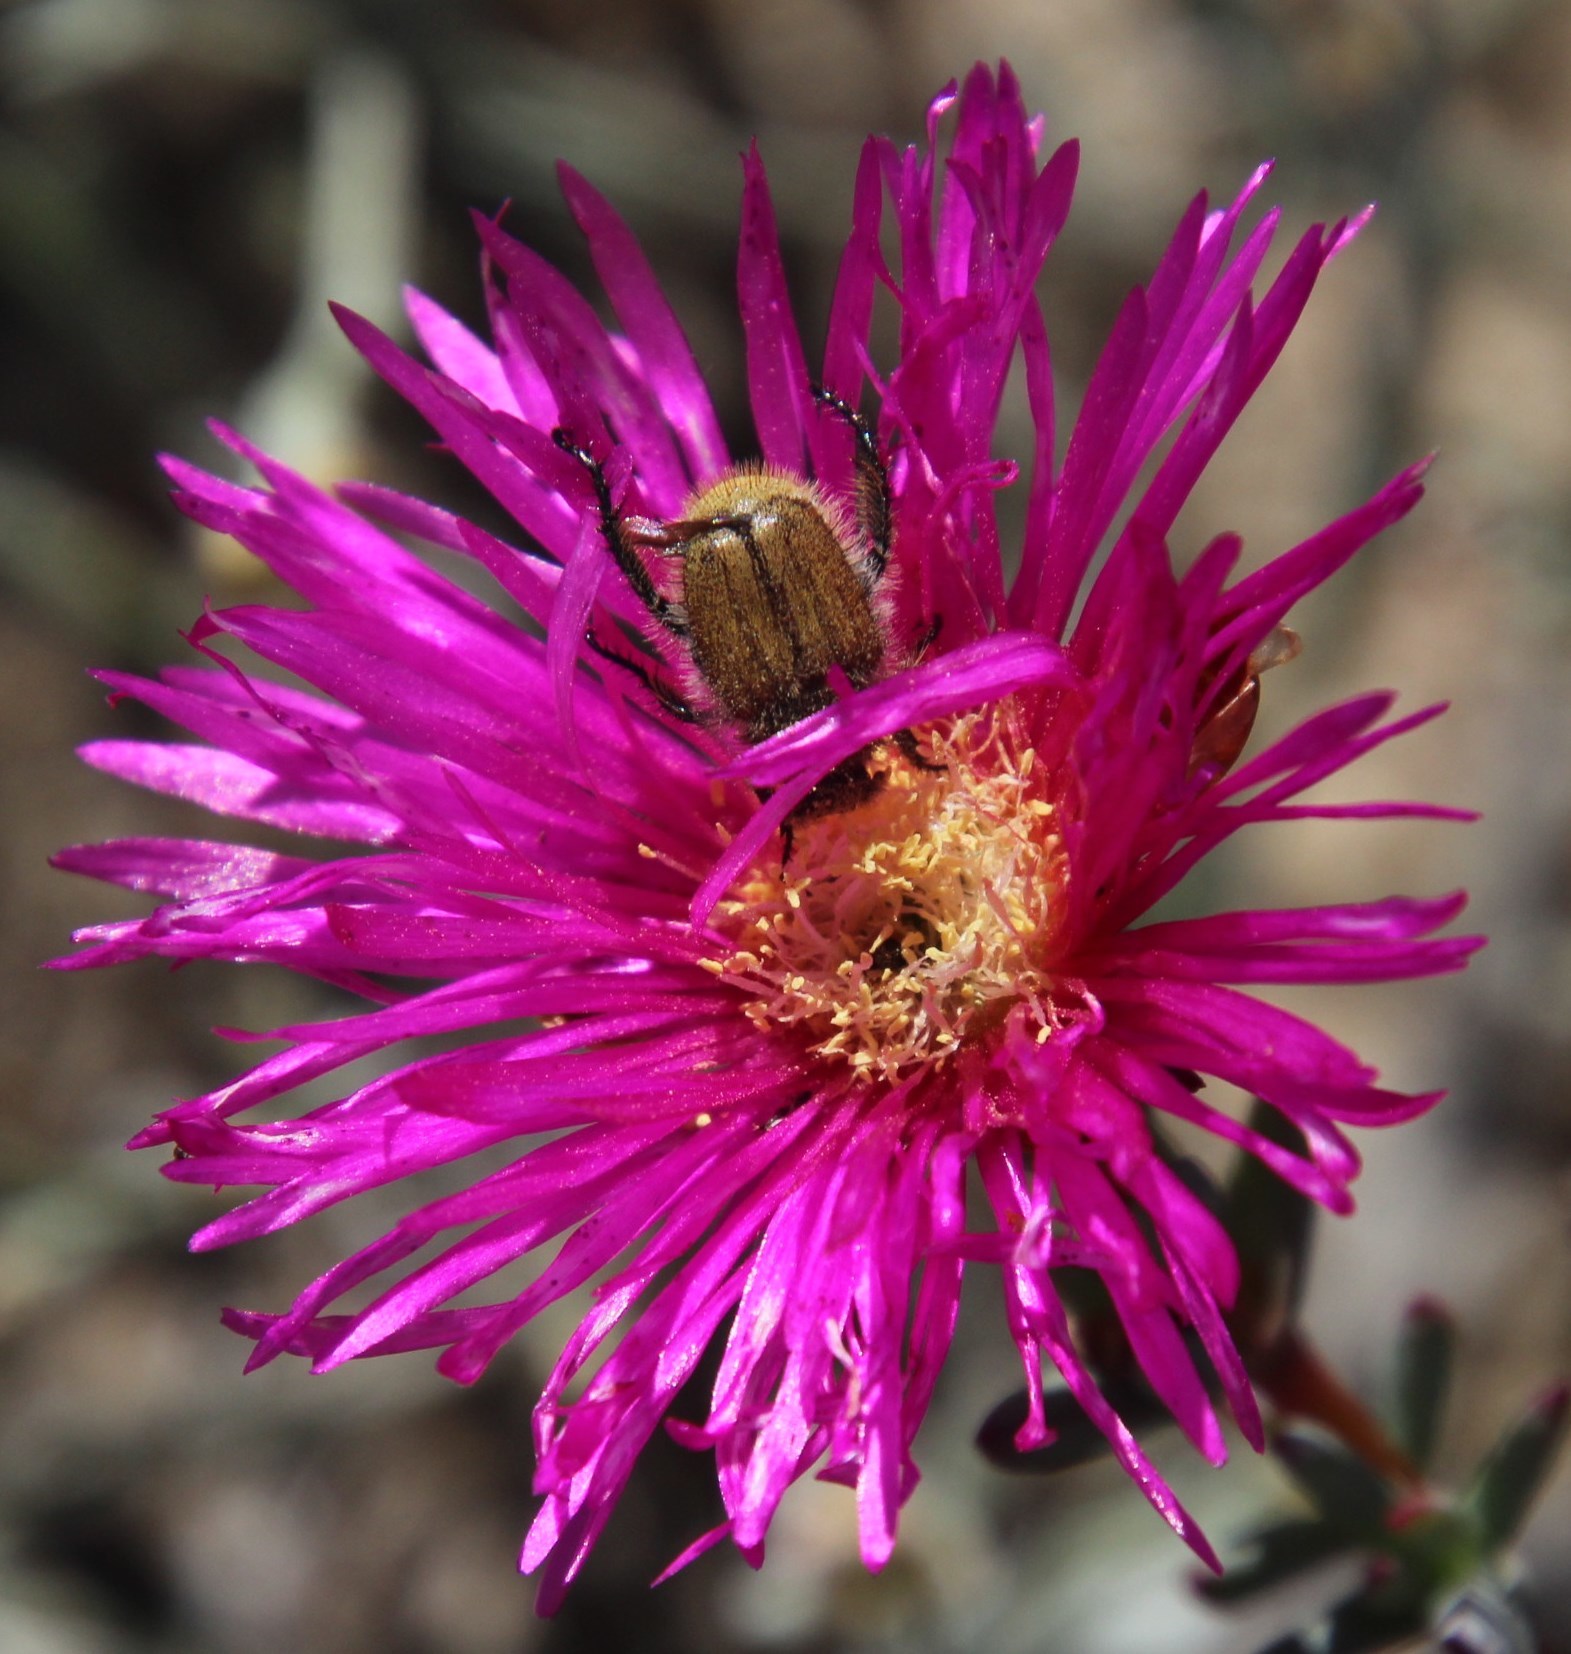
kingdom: Animalia
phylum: Arthropoda
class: Insecta
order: Coleoptera
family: Scarabaeidae
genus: Chasme
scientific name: Chasme decora
